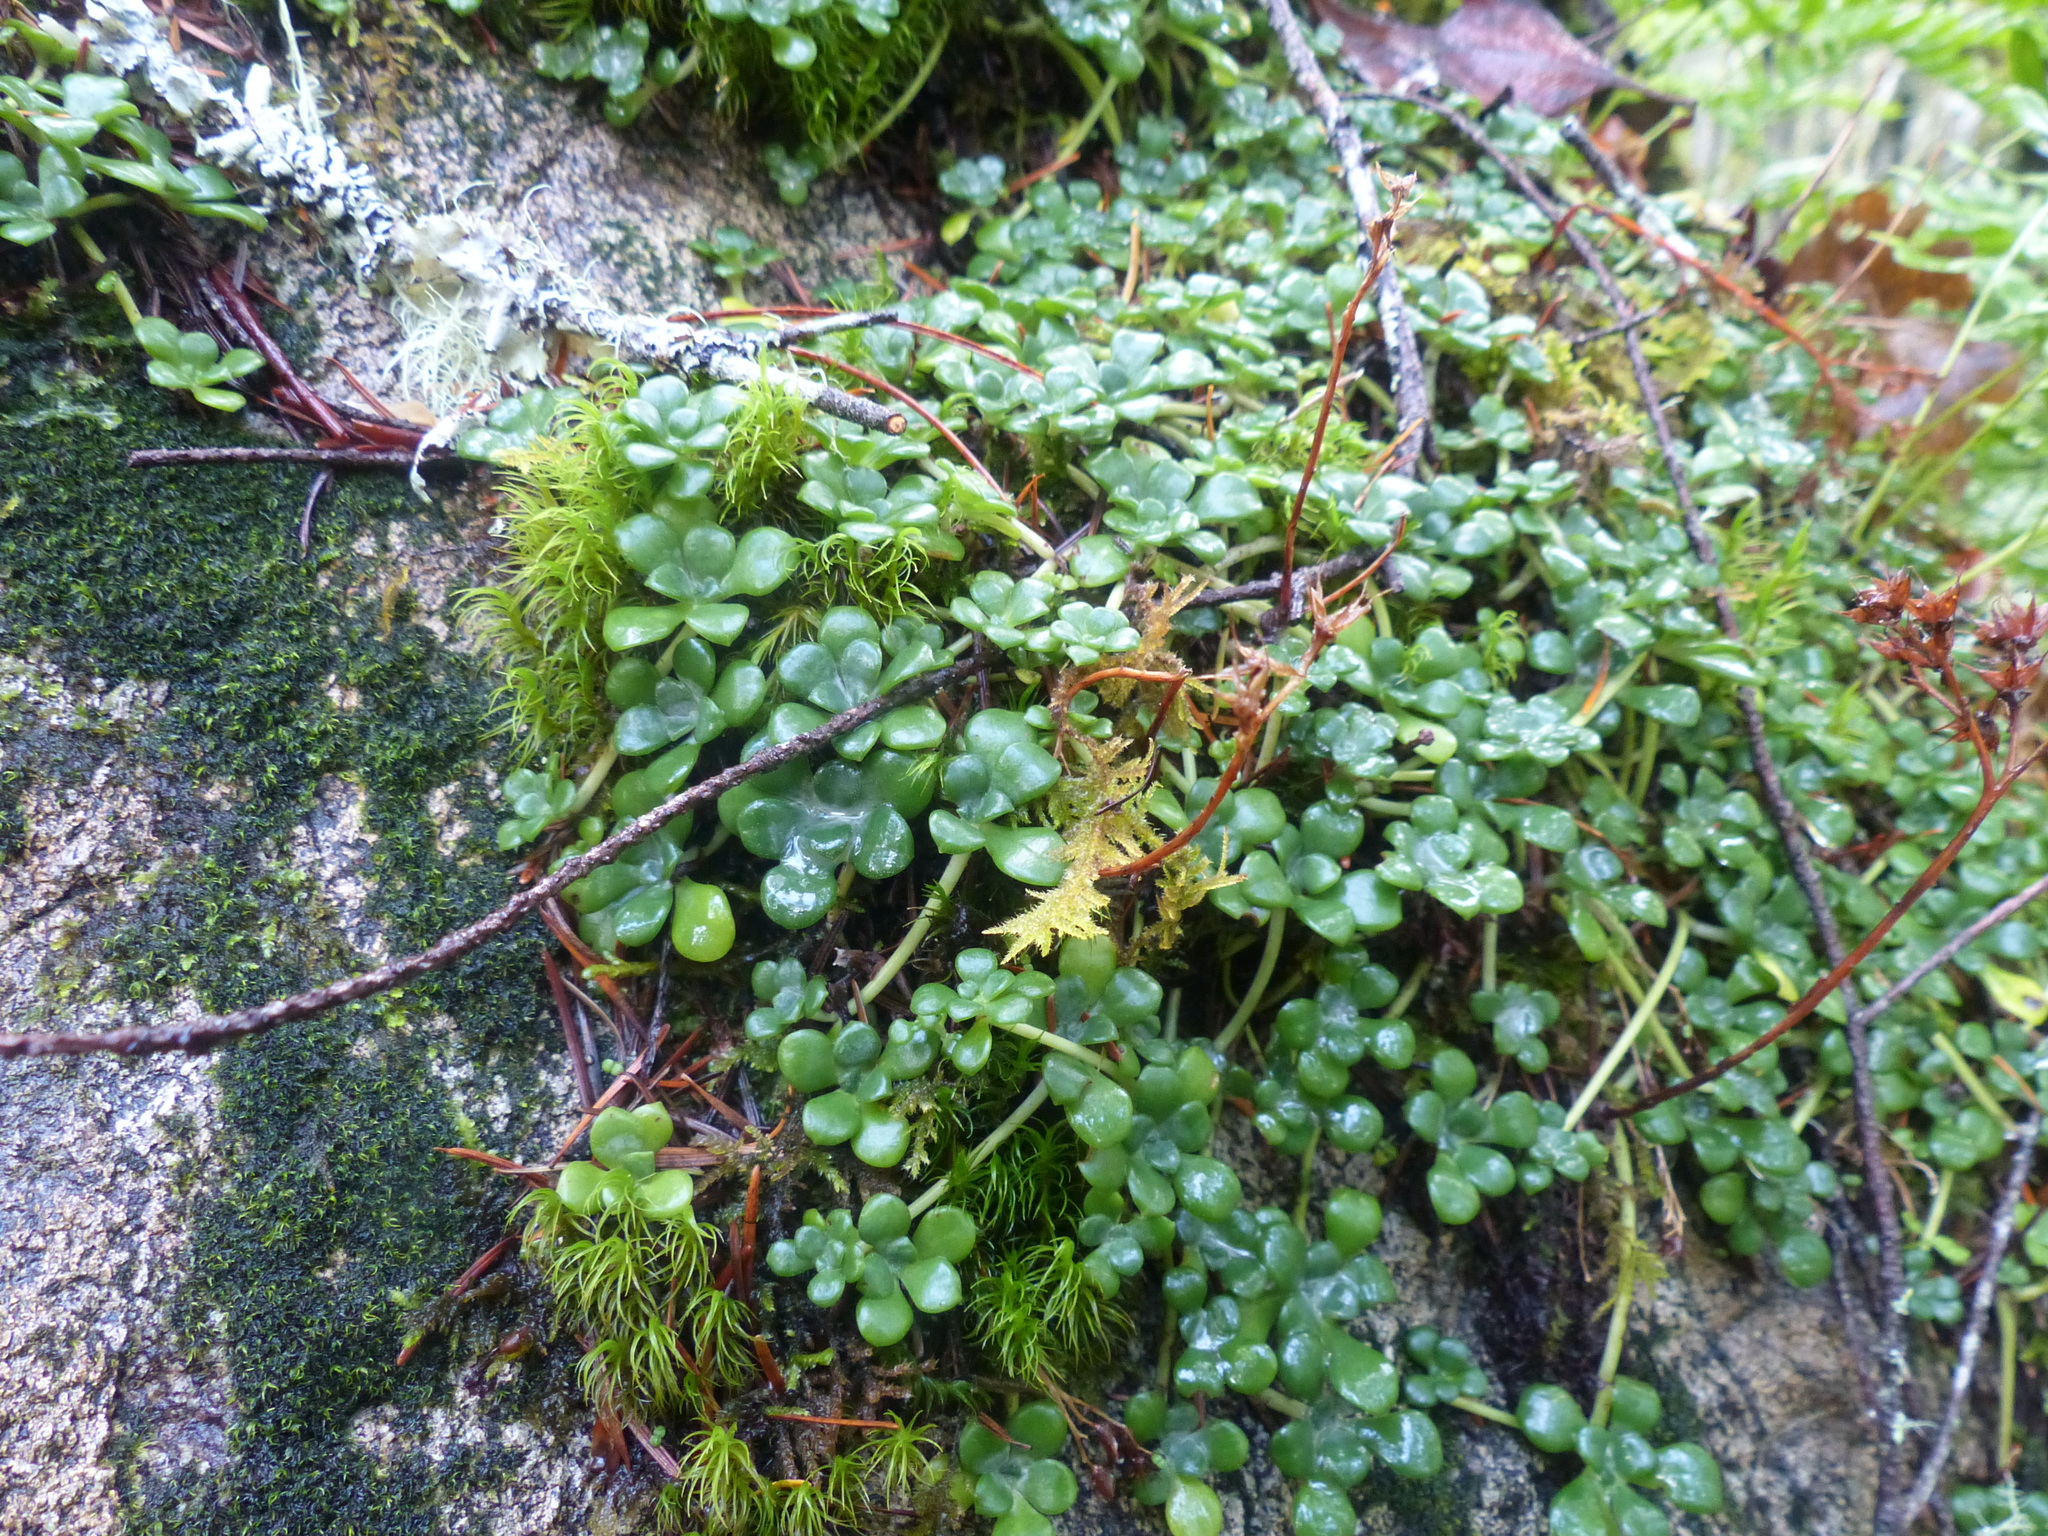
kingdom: Plantae
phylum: Tracheophyta
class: Magnoliopsida
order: Saxifragales
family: Crassulaceae
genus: Sedum
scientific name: Sedum spathulifolium
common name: Colorado stonecrop
